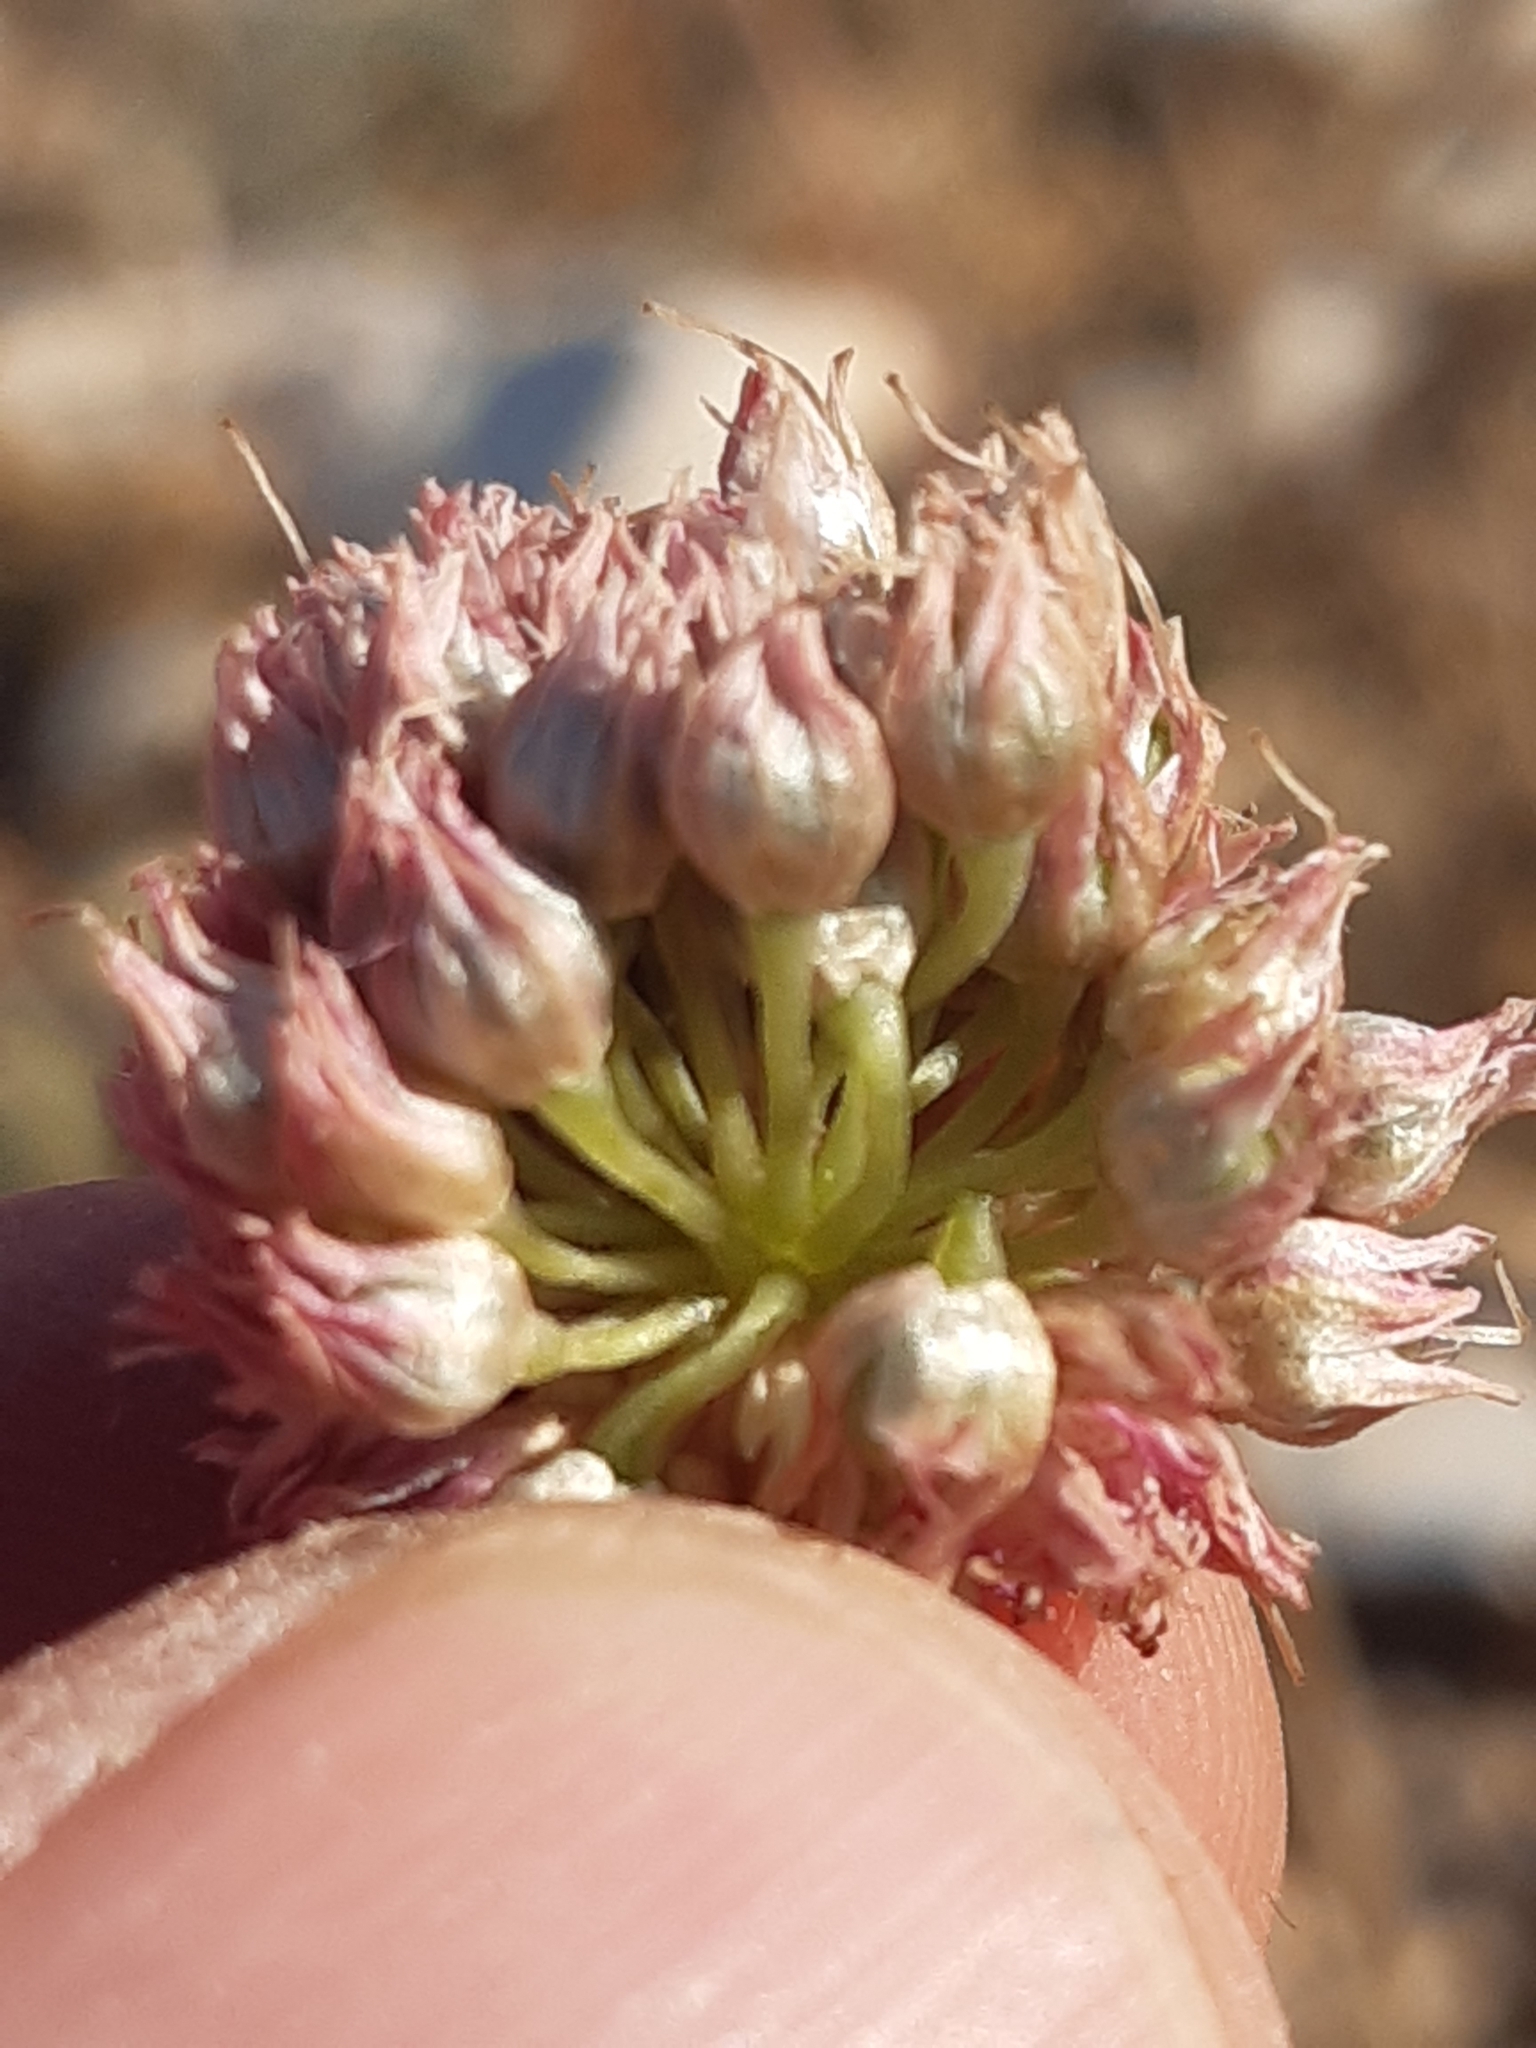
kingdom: Plantae
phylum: Tracheophyta
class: Liliopsida
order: Asparagales
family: Amaryllidaceae
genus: Allium
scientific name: Allium sphaerocephalon
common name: Round-headed leek
